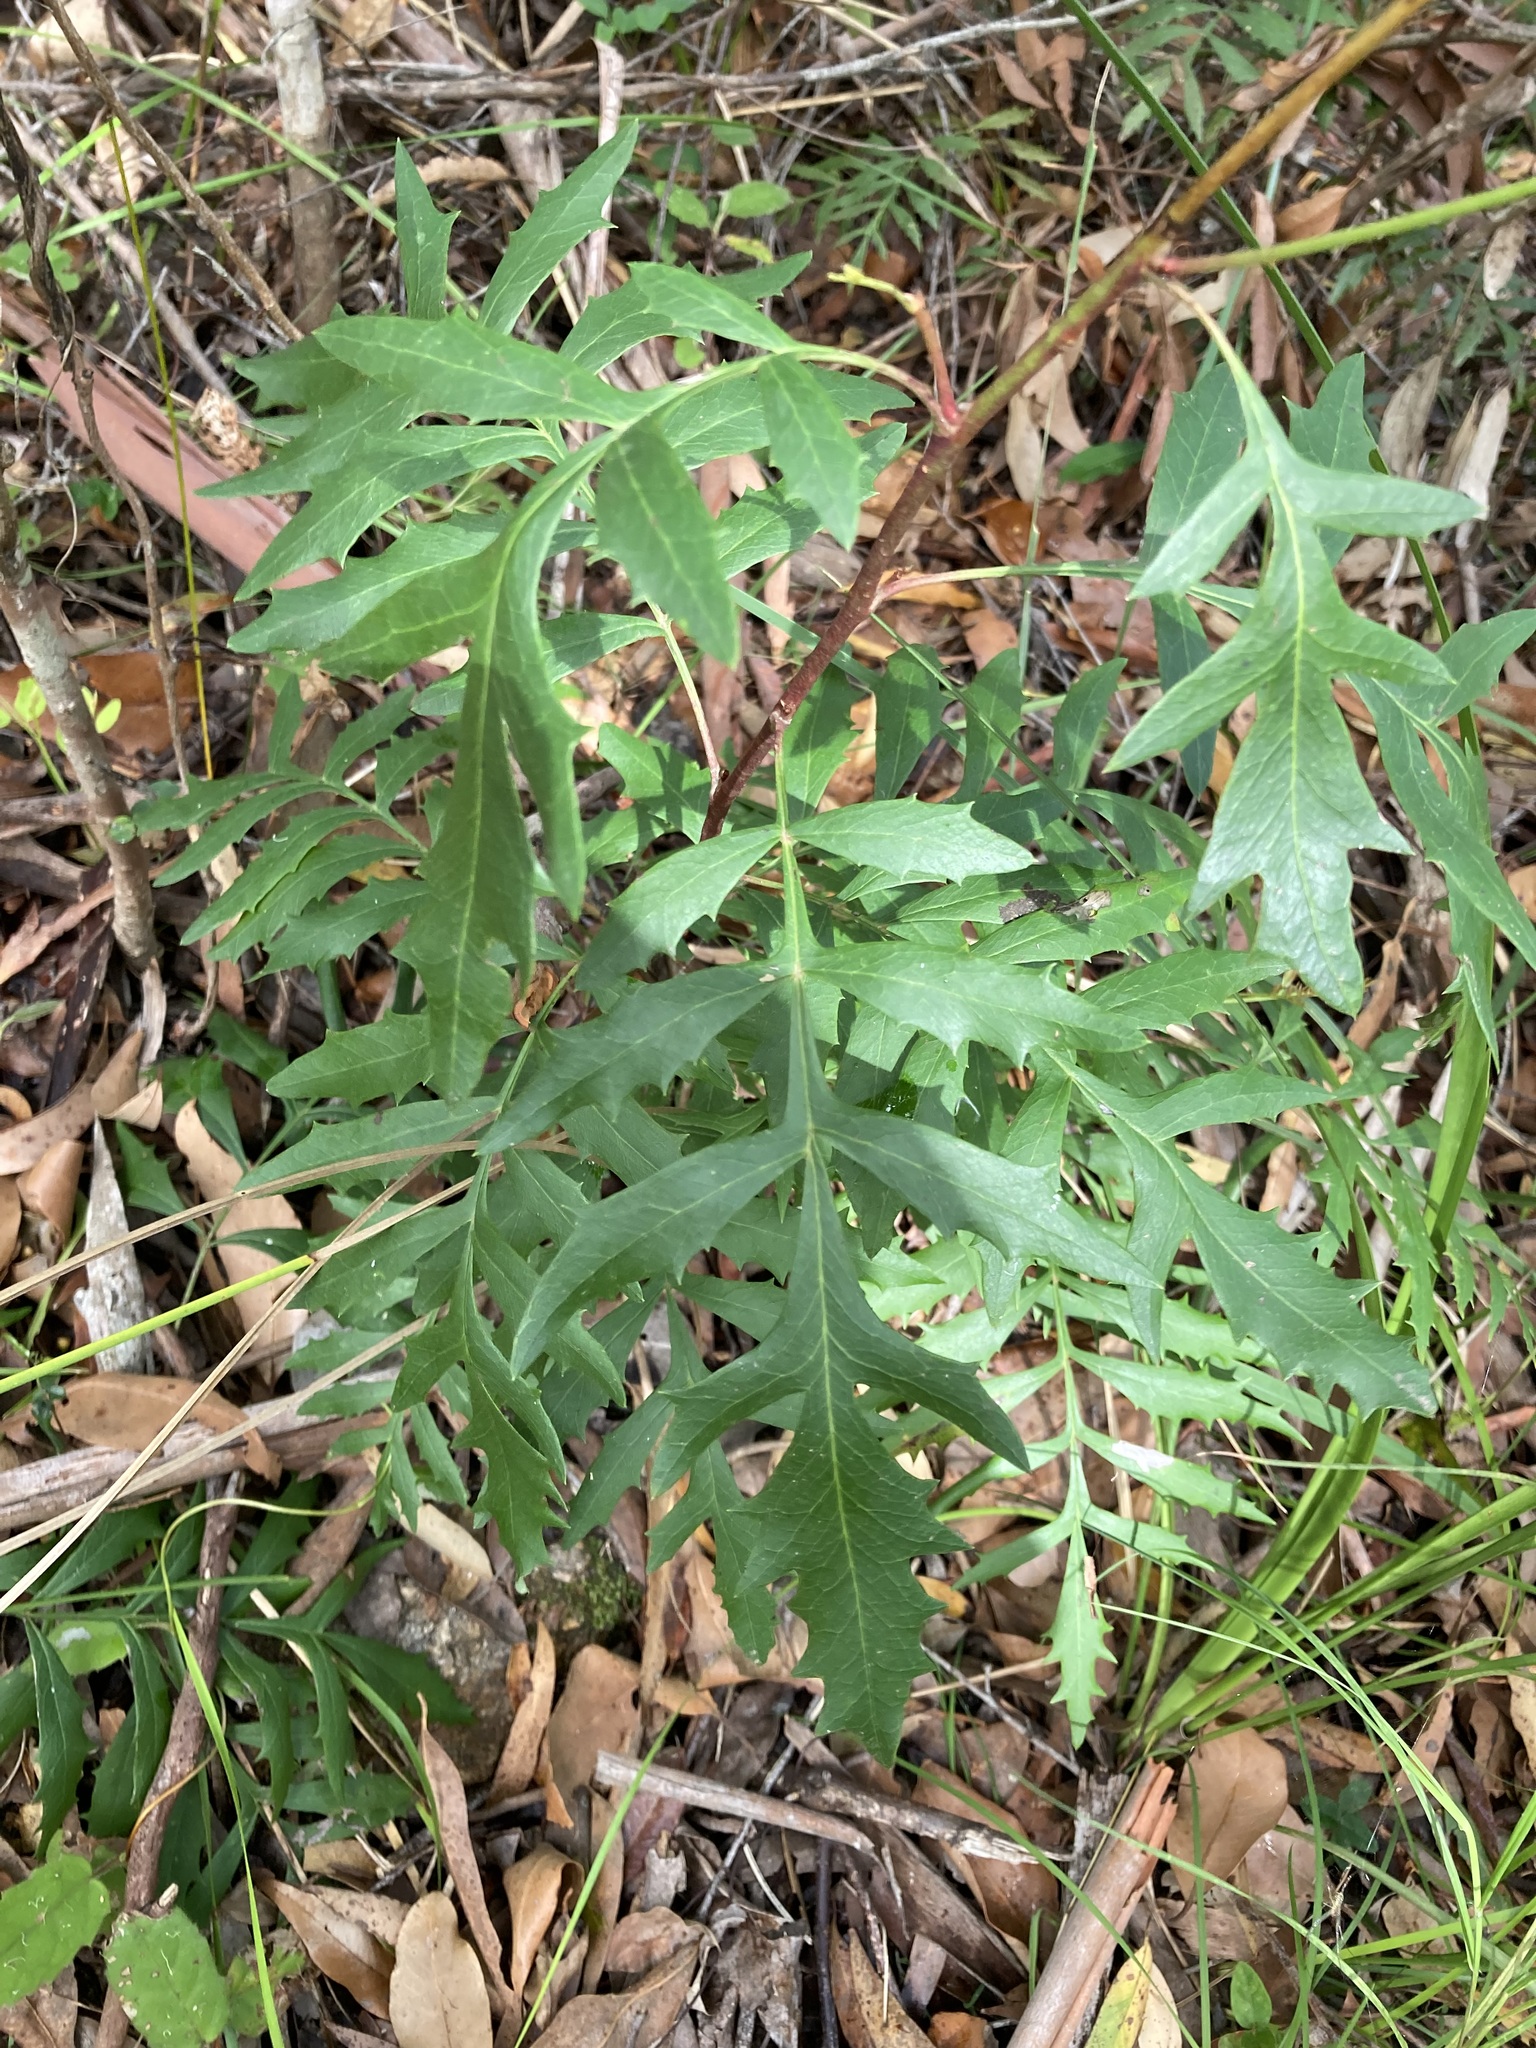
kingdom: Plantae
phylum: Tracheophyta
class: Magnoliopsida
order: Proteales
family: Proteaceae
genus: Lomatia
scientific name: Lomatia silaifolia
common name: Crinklebush
